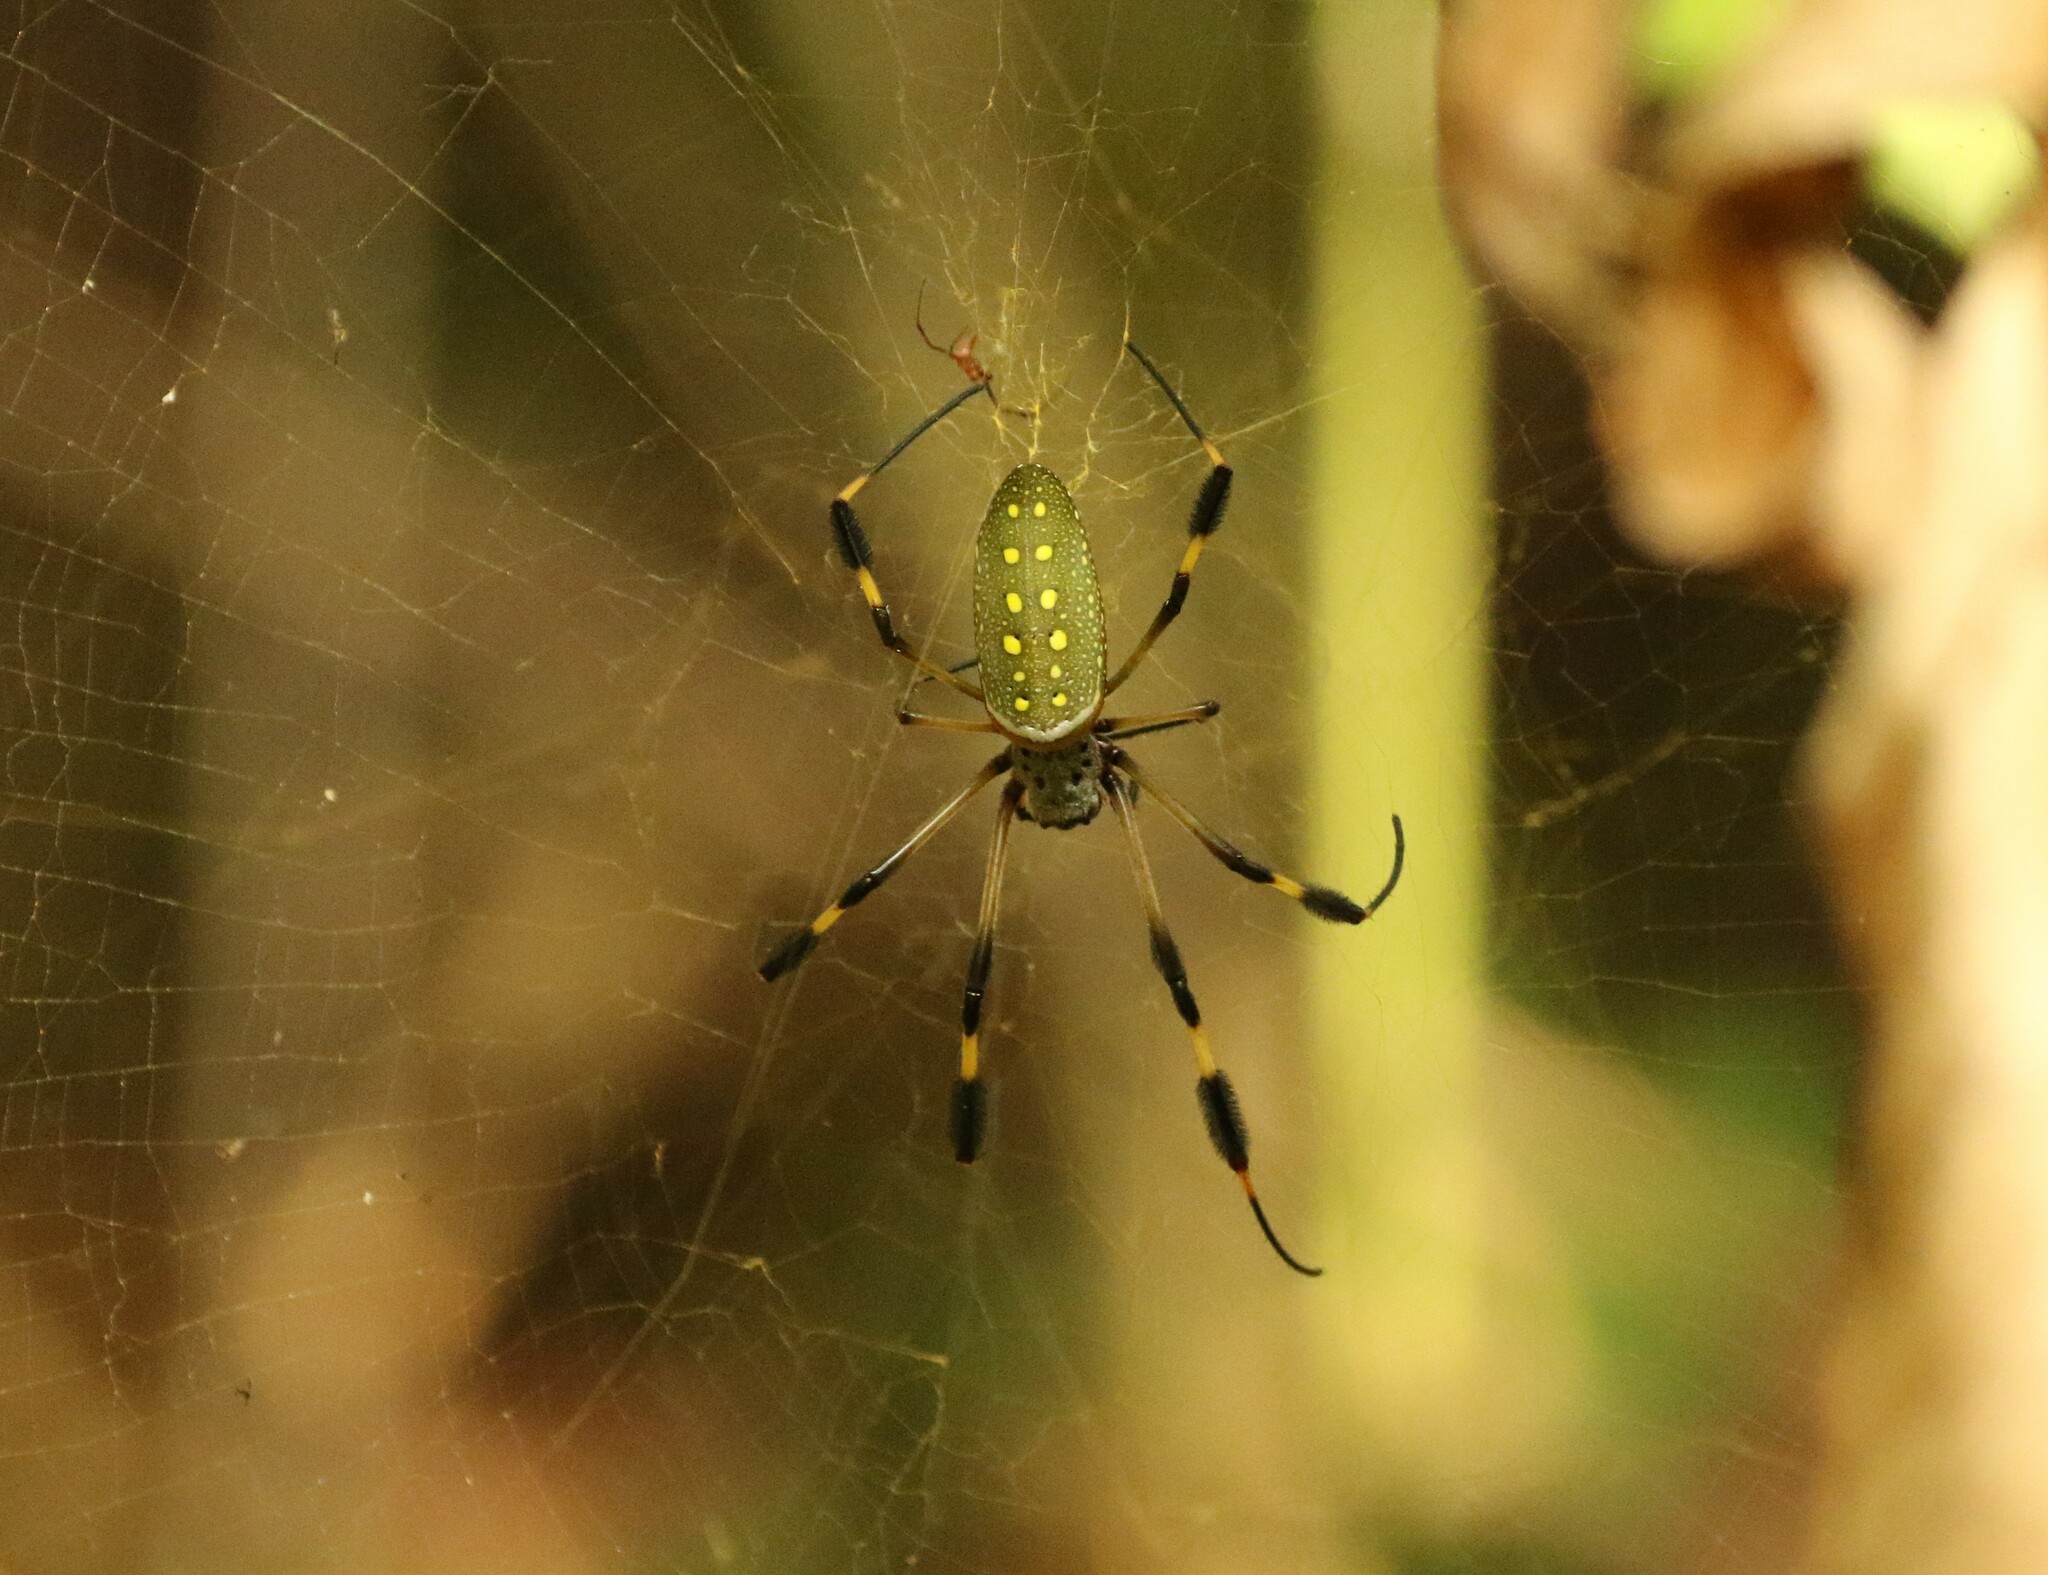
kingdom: Animalia
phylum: Arthropoda
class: Arachnida
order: Araneae
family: Araneidae
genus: Trichonephila
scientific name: Trichonephila clavipes
